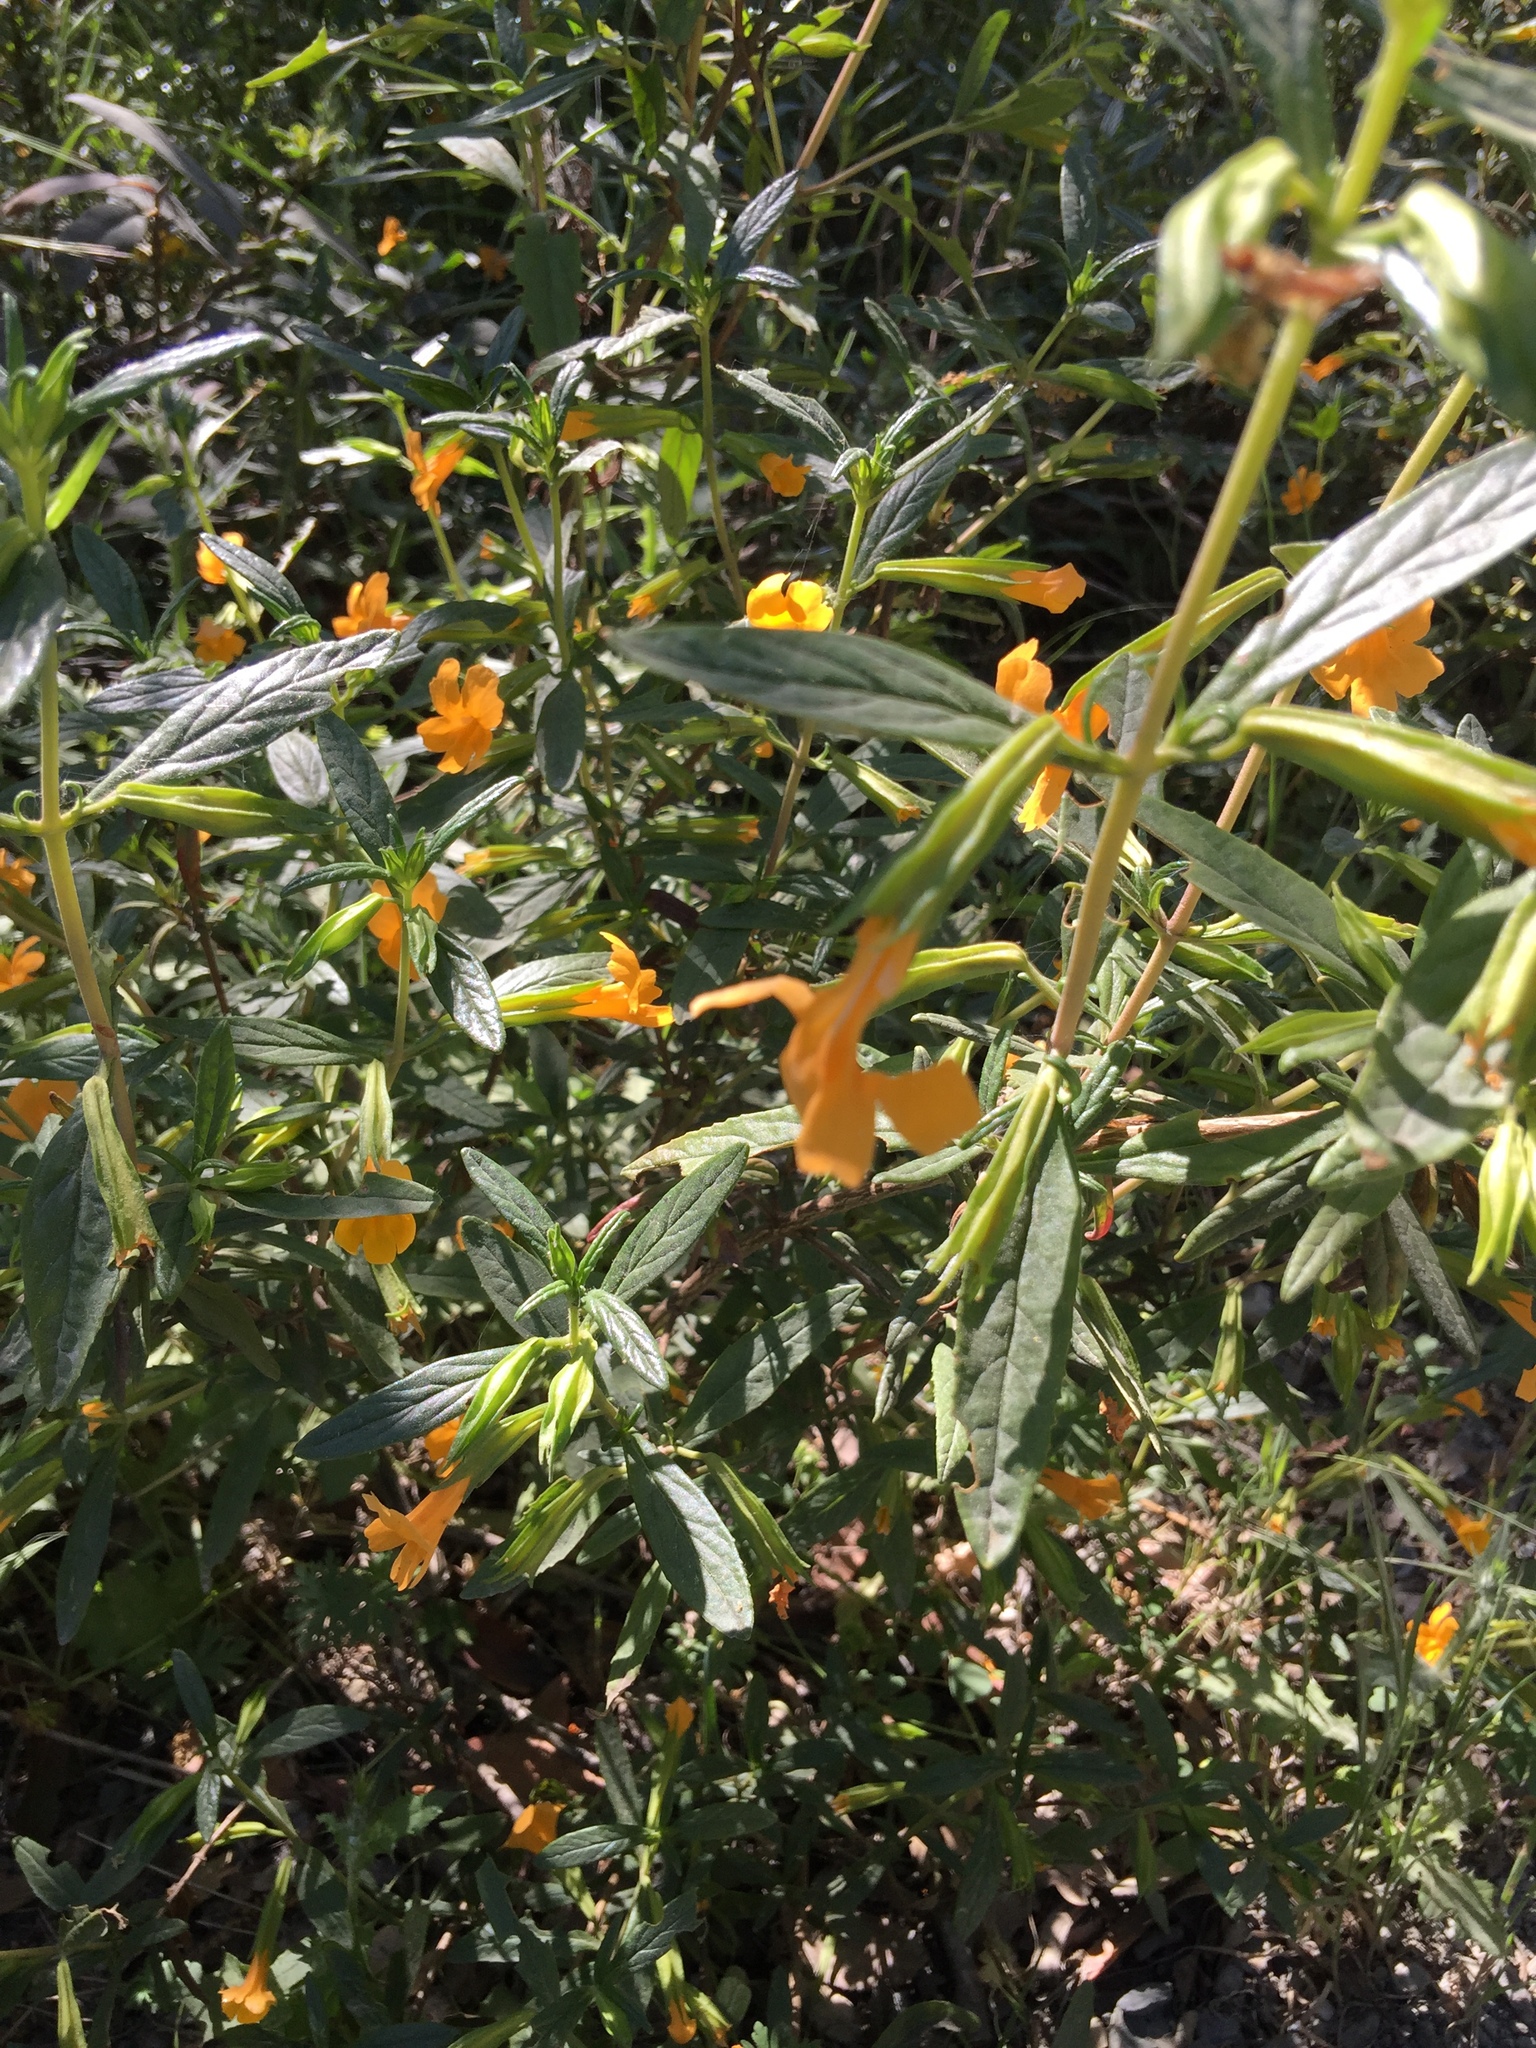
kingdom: Plantae
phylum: Tracheophyta
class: Magnoliopsida
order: Lamiales
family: Phrymaceae
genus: Diplacus
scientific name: Diplacus aurantiacus
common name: Bush monkey-flower
